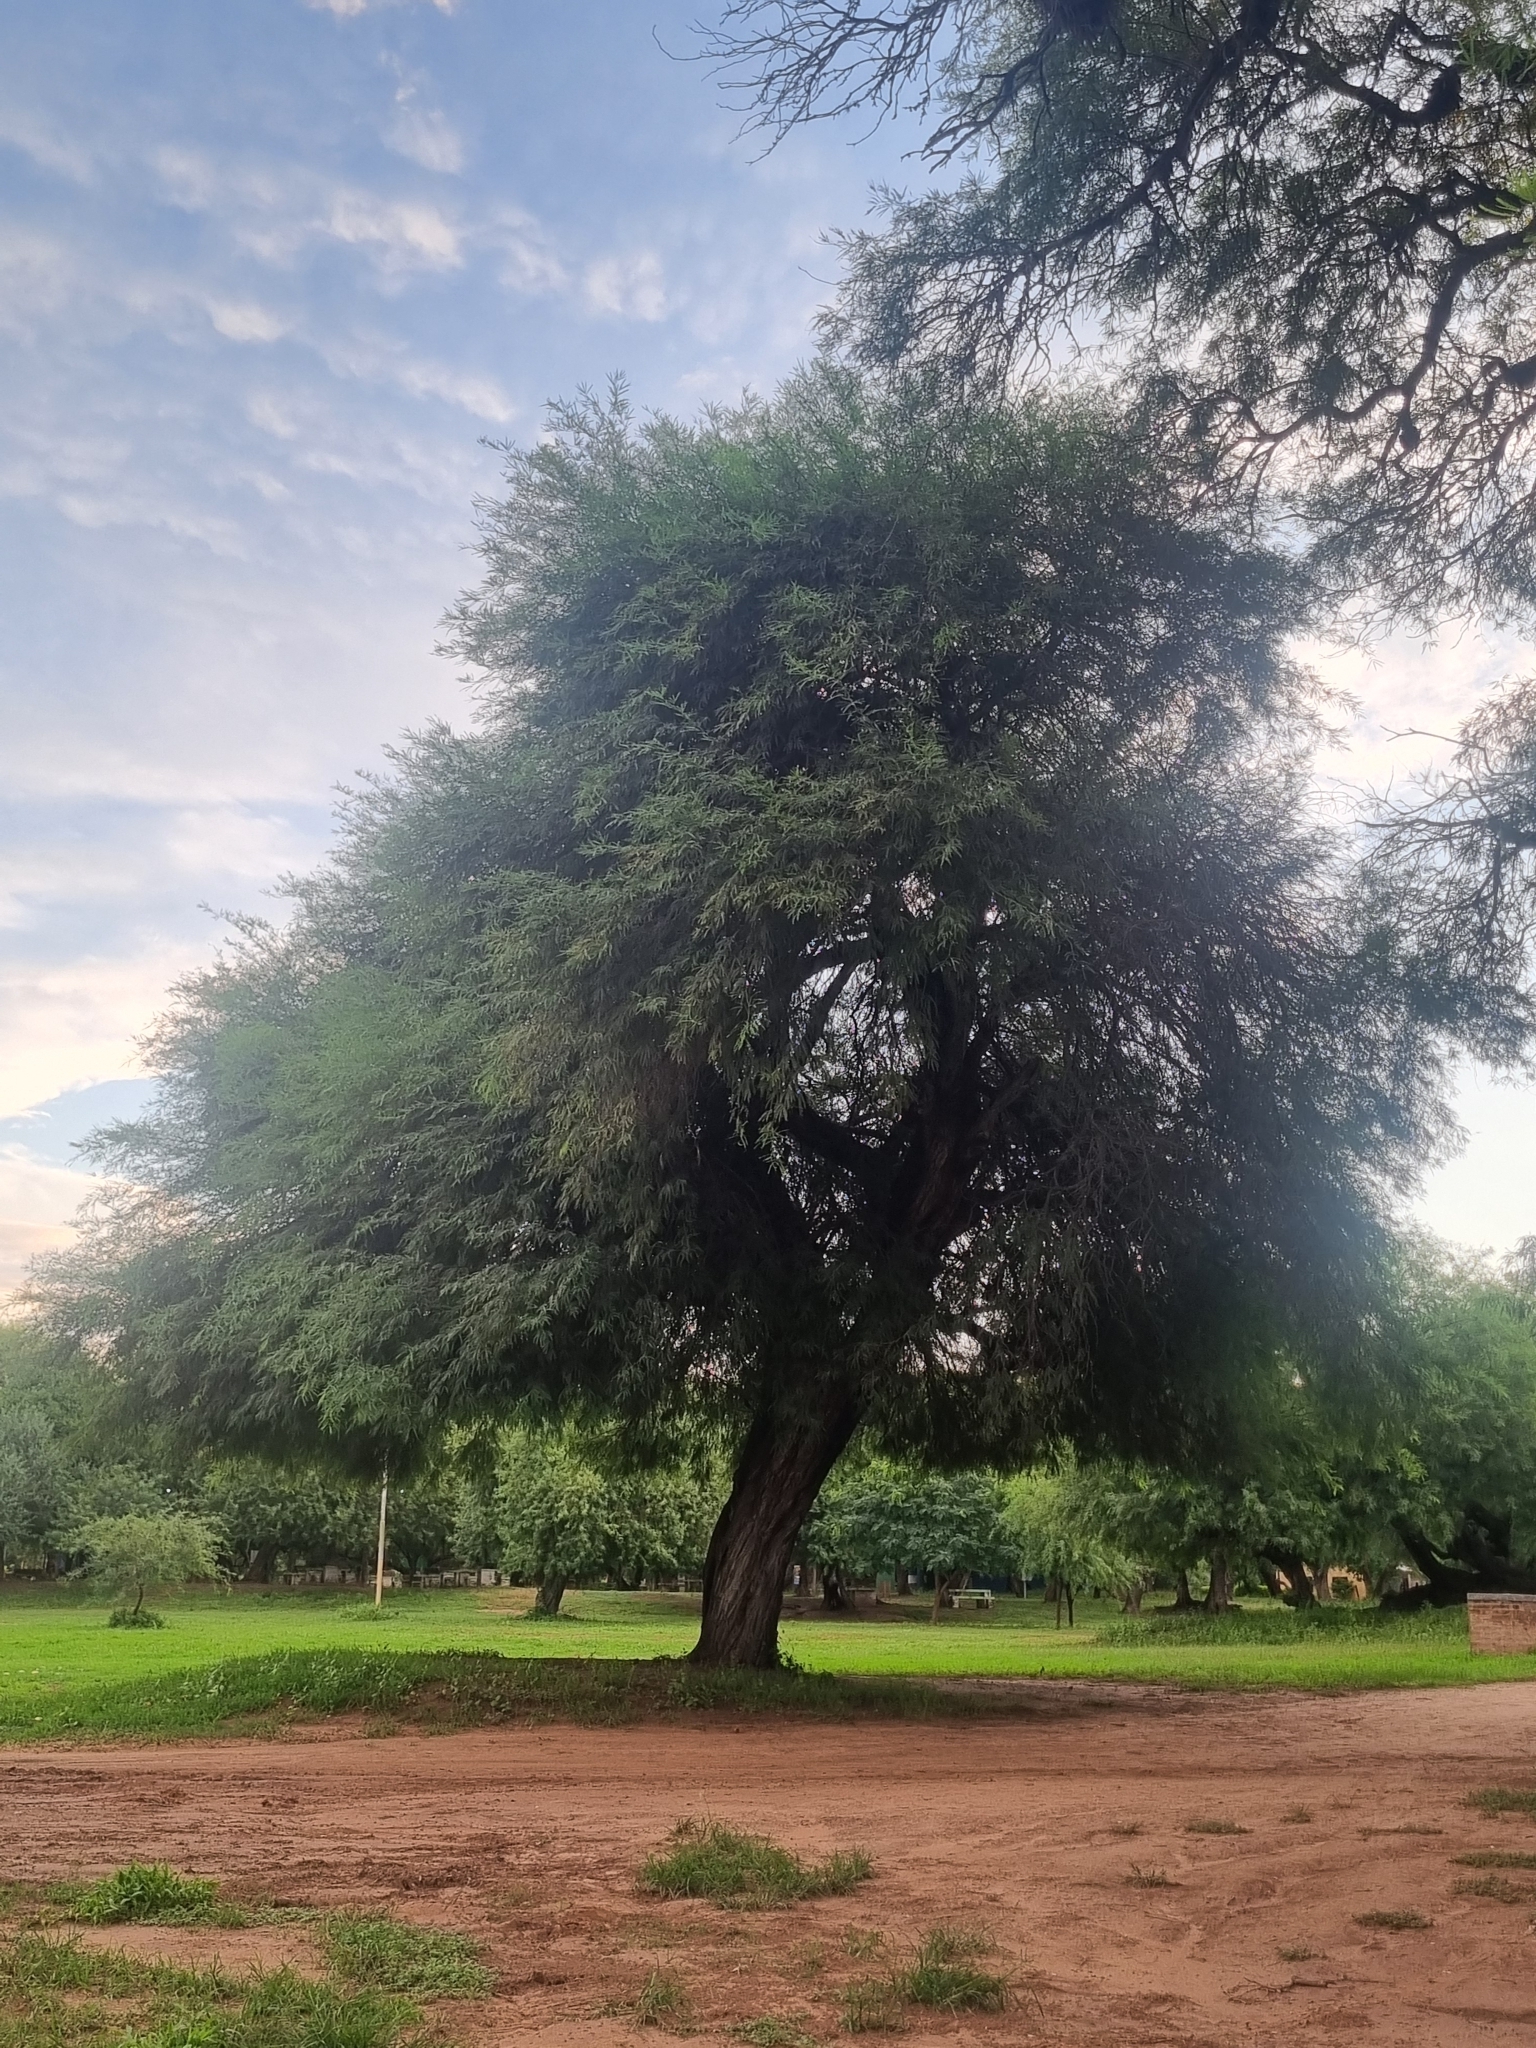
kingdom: Plantae
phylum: Tracheophyta
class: Magnoliopsida
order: Fabales
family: Fabaceae
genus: Prosopis
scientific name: Prosopis alba
